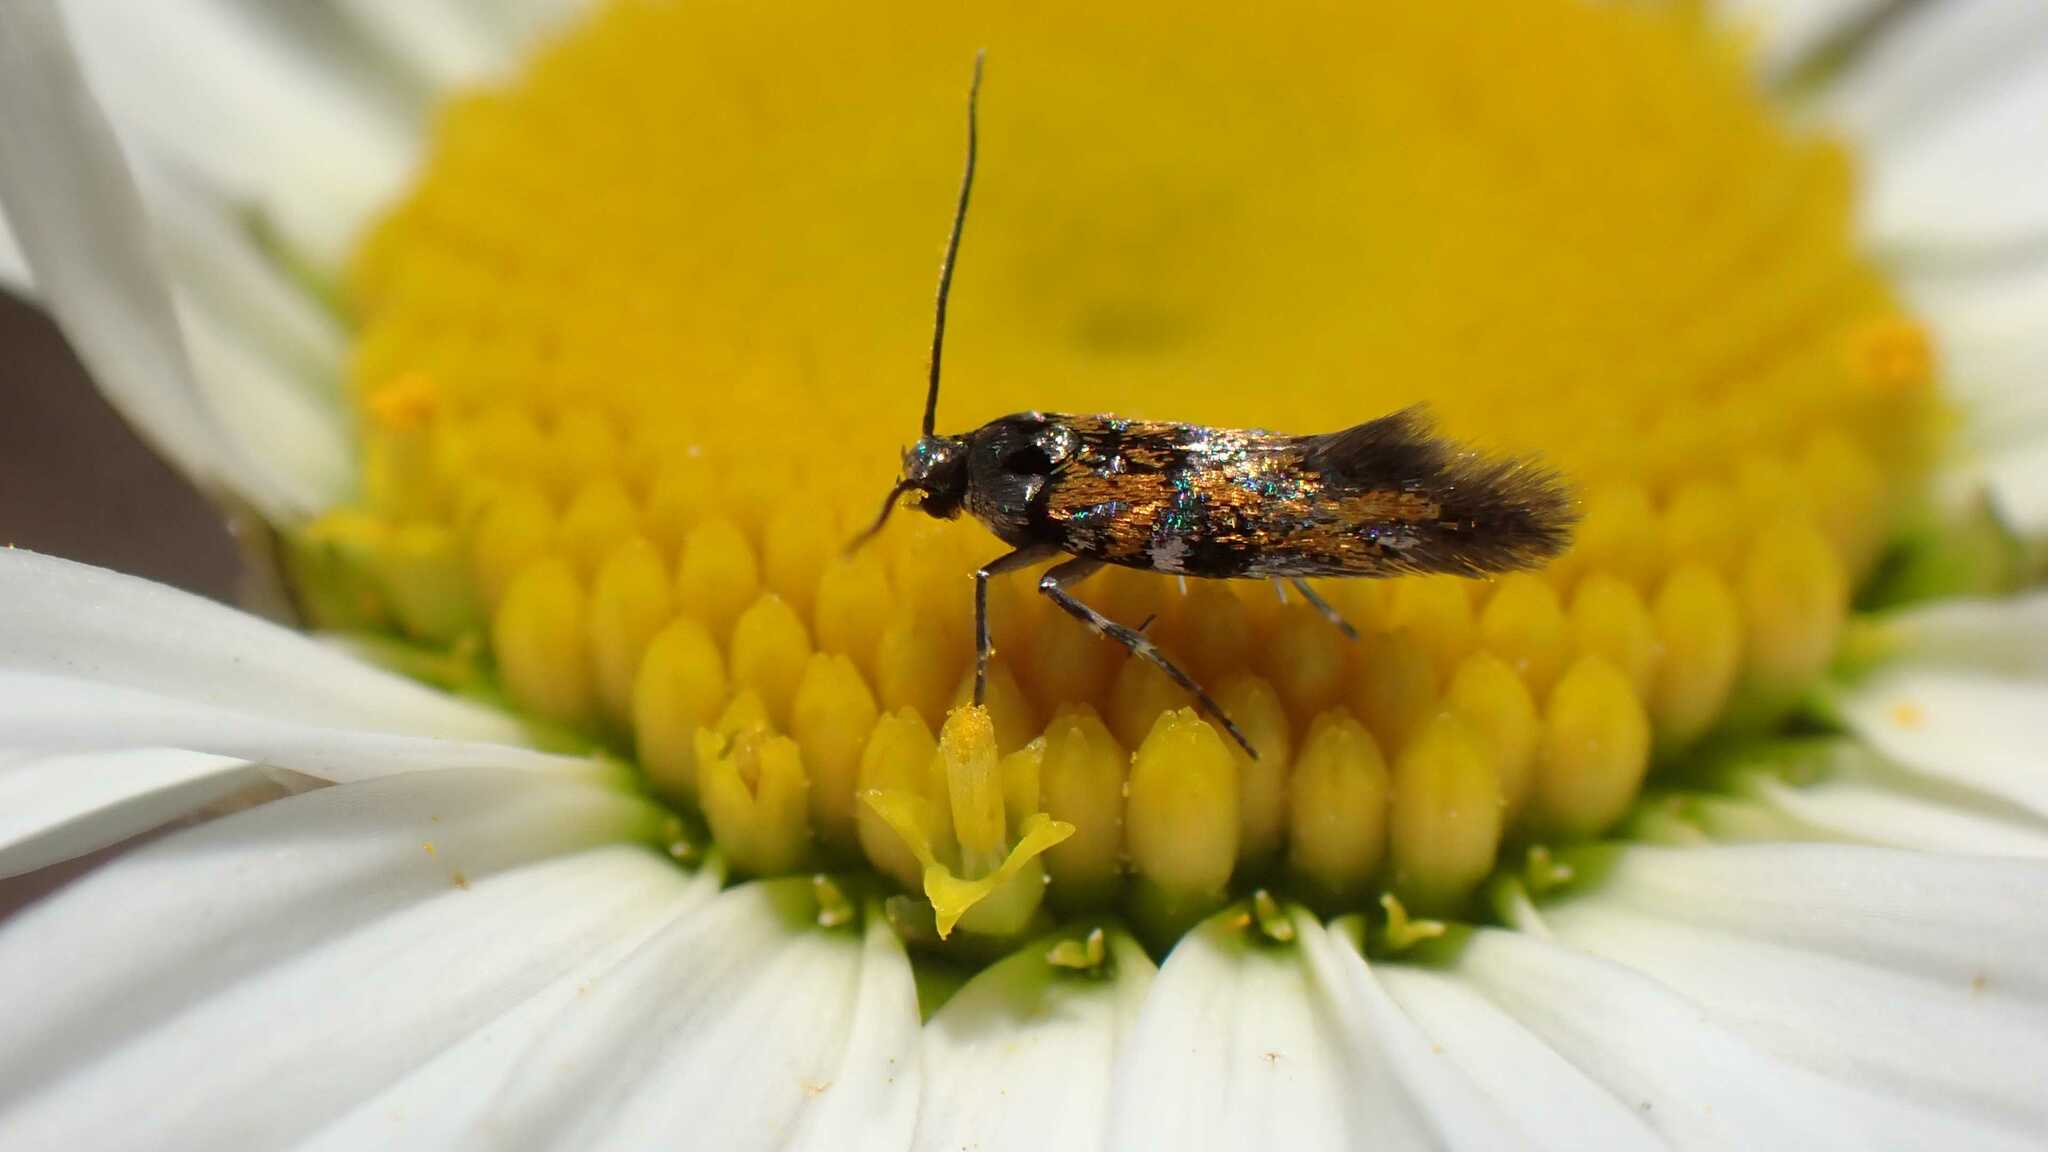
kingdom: Animalia
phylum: Arthropoda
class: Insecta
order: Lepidoptera
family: Gelechiidae
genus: Chrysoesthia
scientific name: Chrysoesthia drurella
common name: Flame neb
